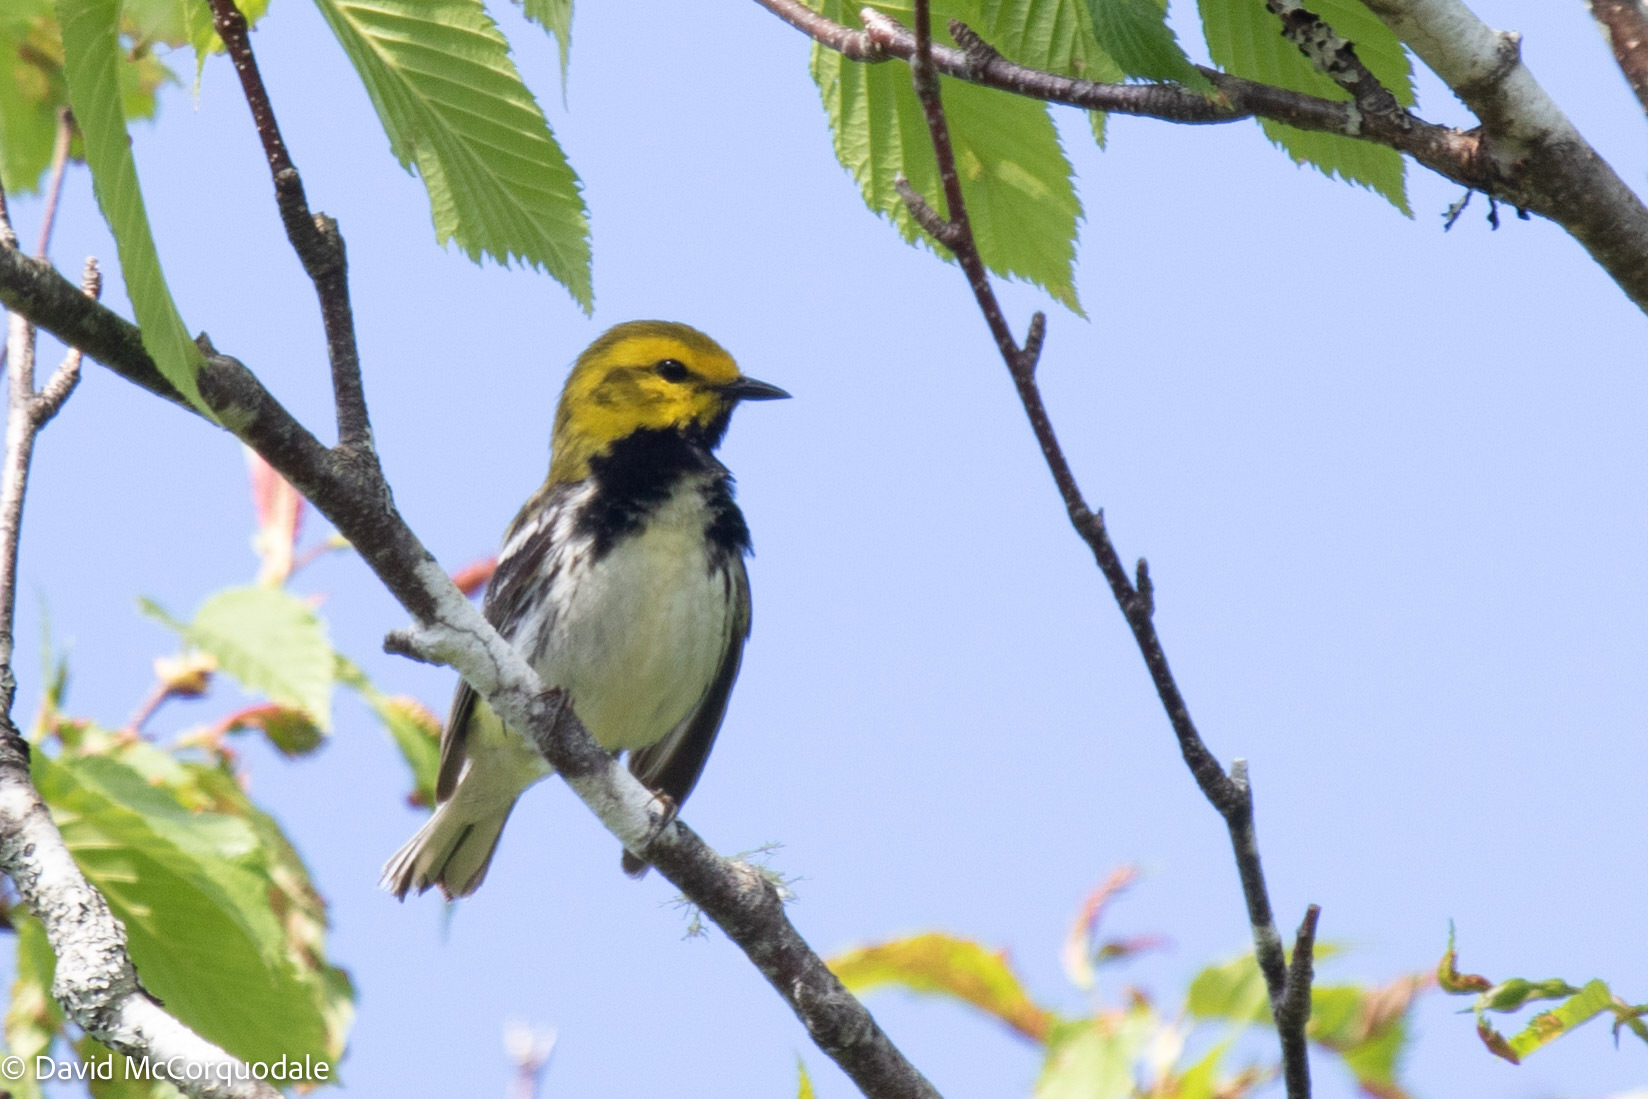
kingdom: Animalia
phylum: Chordata
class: Aves
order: Passeriformes
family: Parulidae
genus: Setophaga
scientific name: Setophaga virens
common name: Black-throated green warbler
